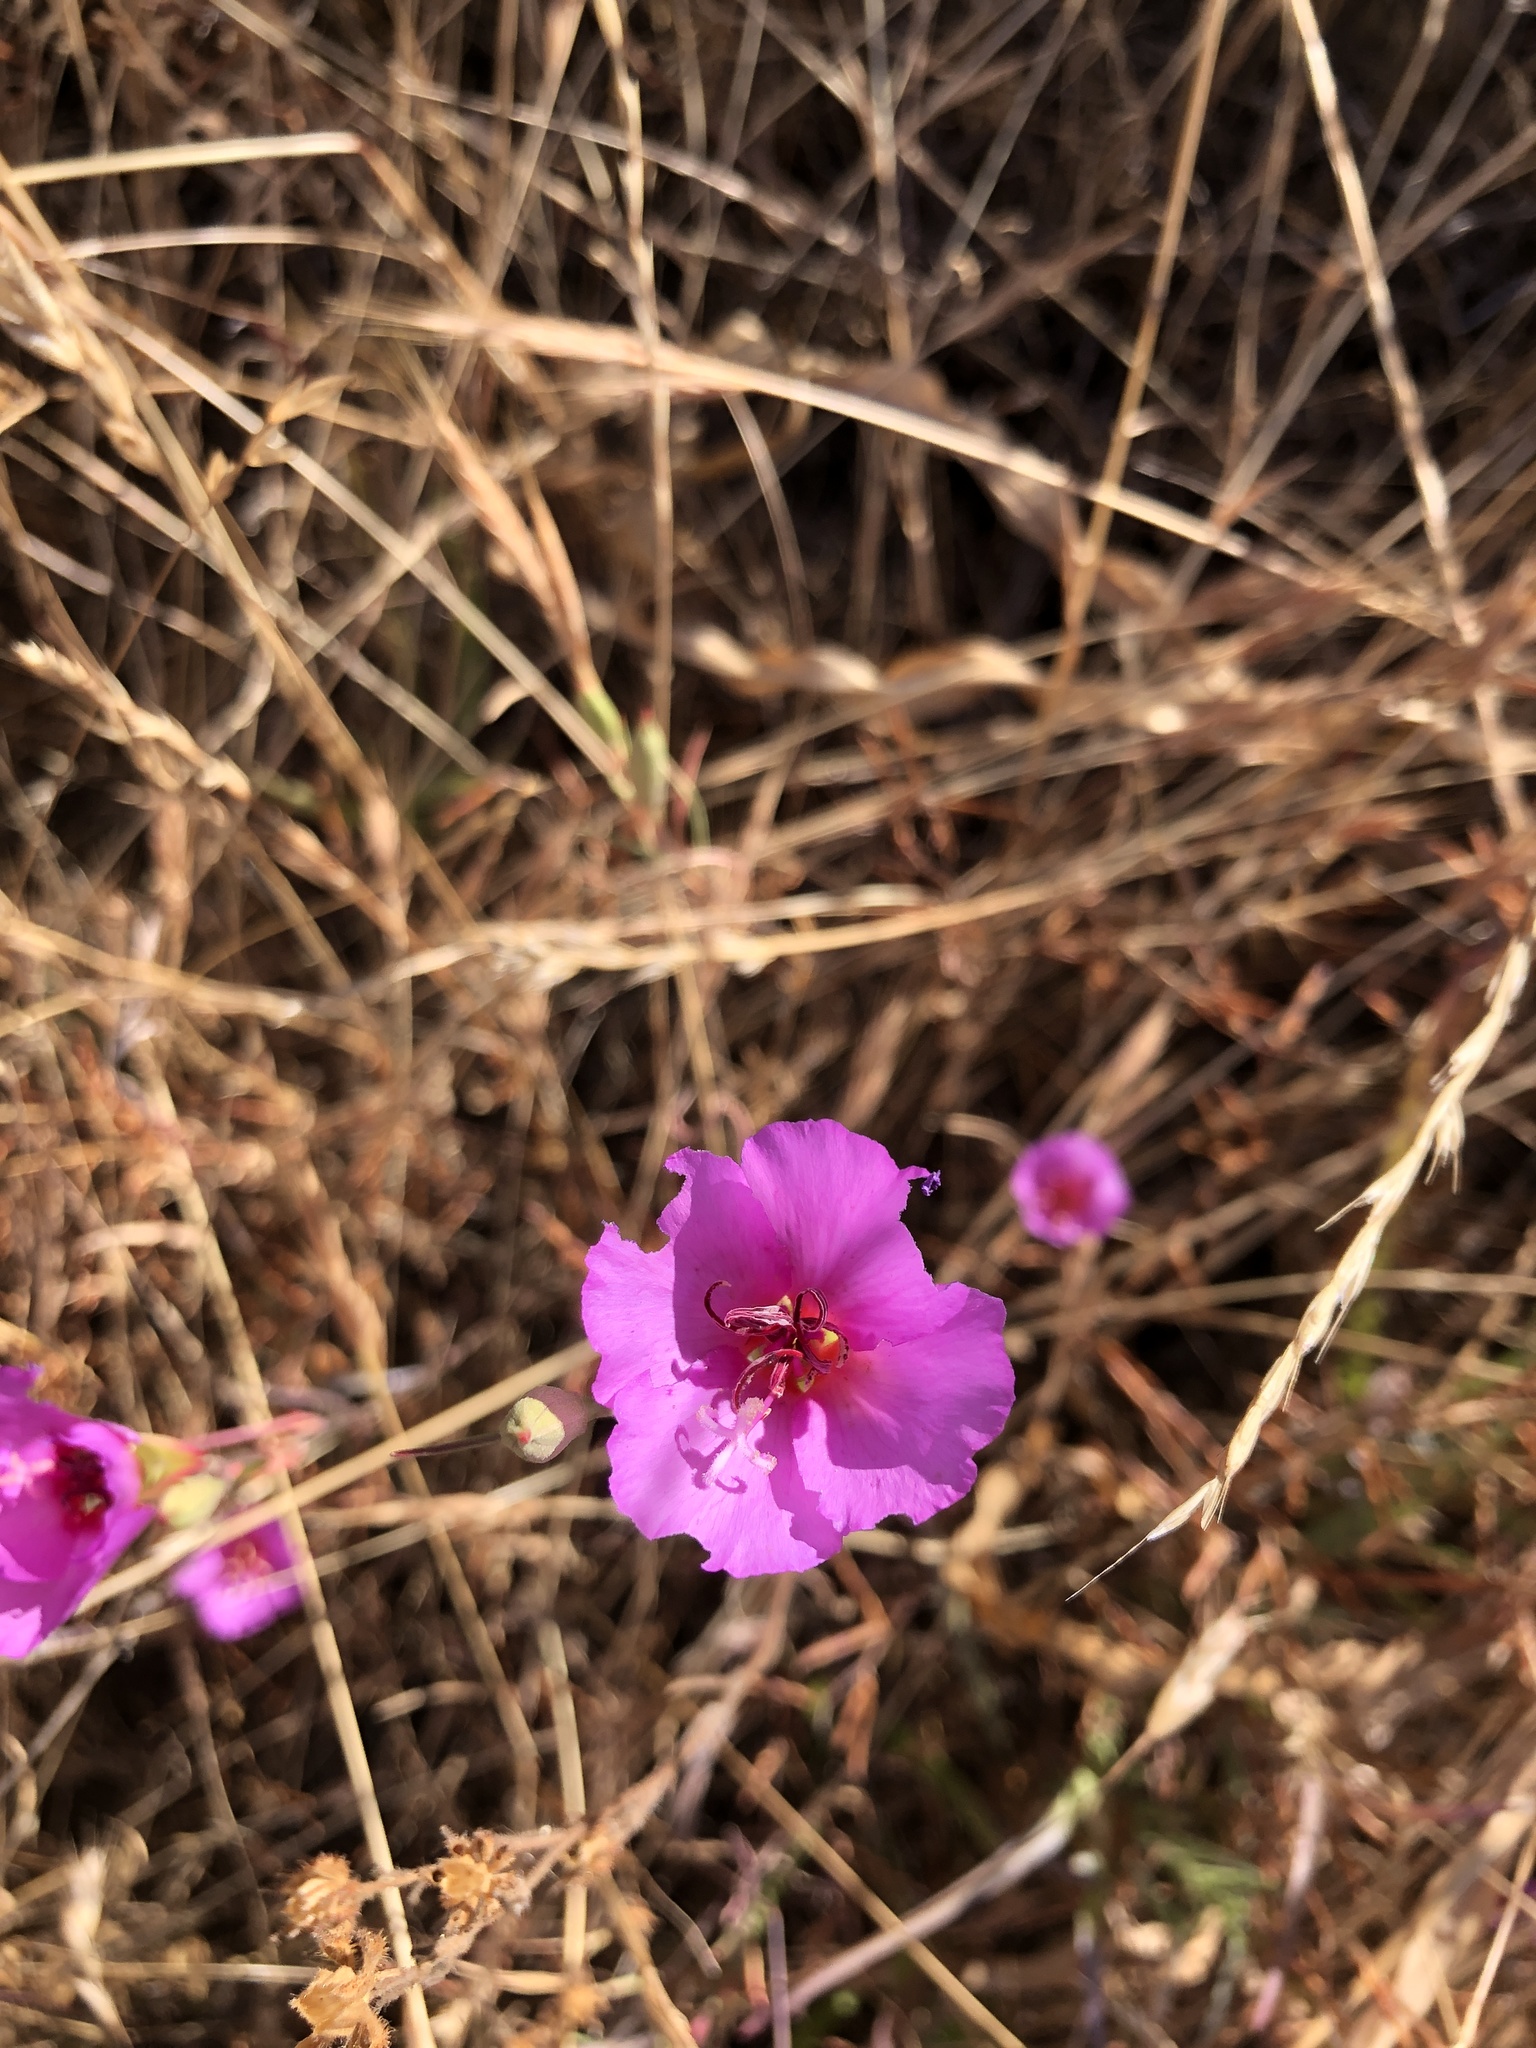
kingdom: Plantae
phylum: Tracheophyta
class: Magnoliopsida
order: Myrtales
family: Onagraceae
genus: Clarkia
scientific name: Clarkia rubicunda
